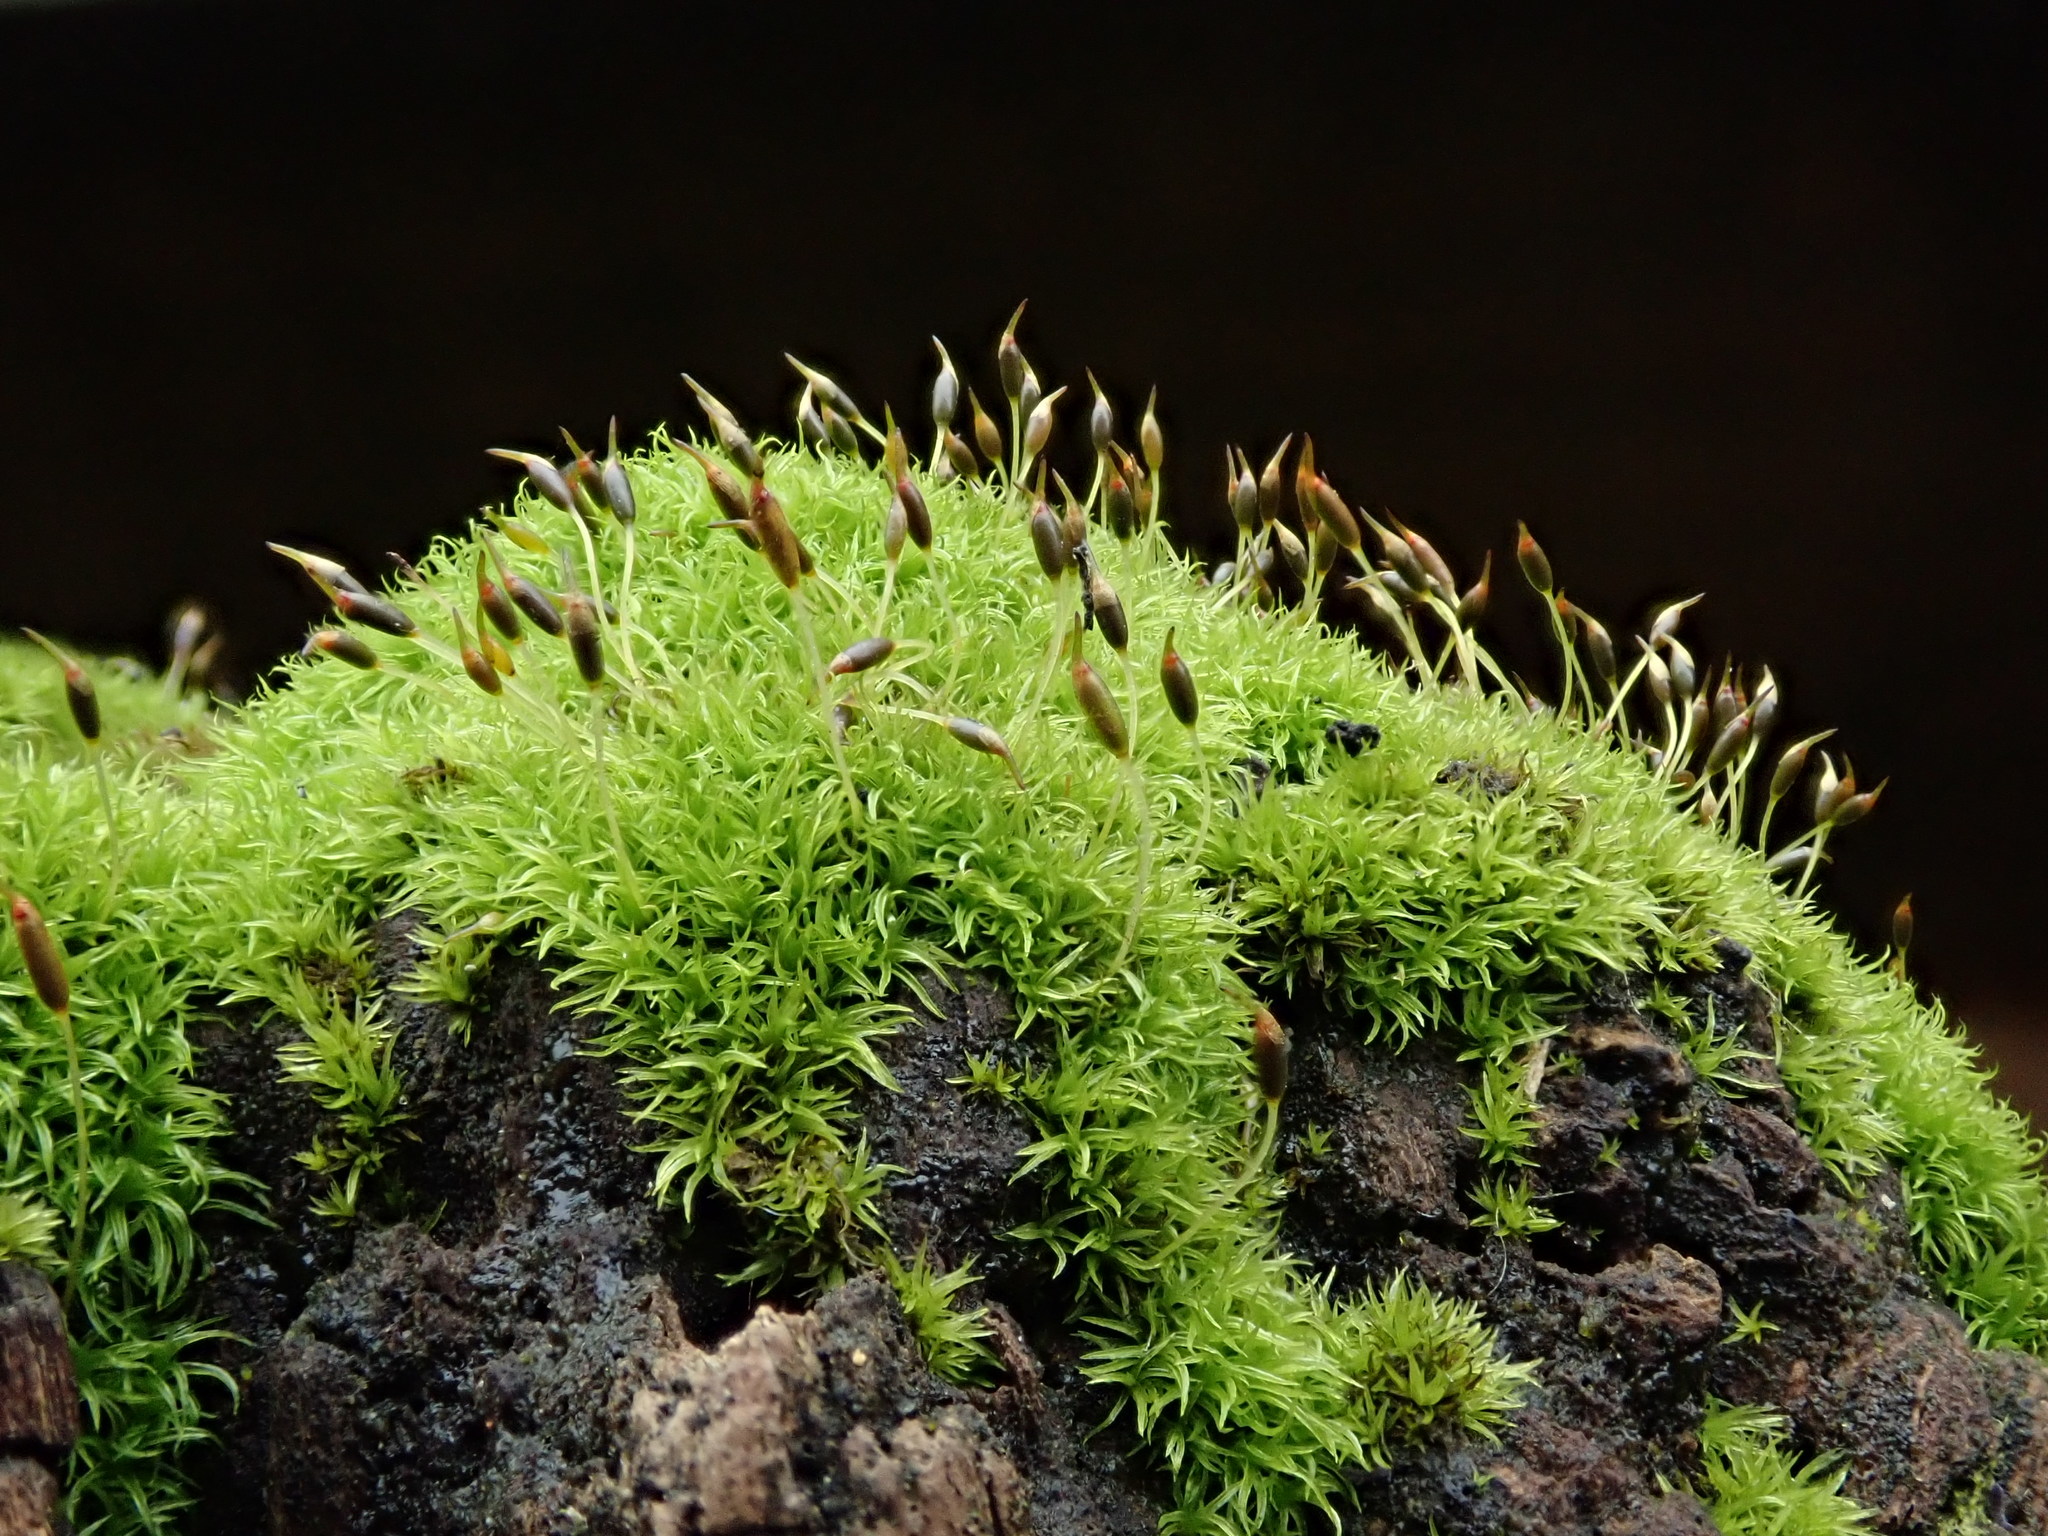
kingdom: Plantae
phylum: Bryophyta
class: Bryopsida
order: Dicranales
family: Rhabdoweisiaceae
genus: Dicranoweisia
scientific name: Dicranoweisia cirrata
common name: Common pincushion
